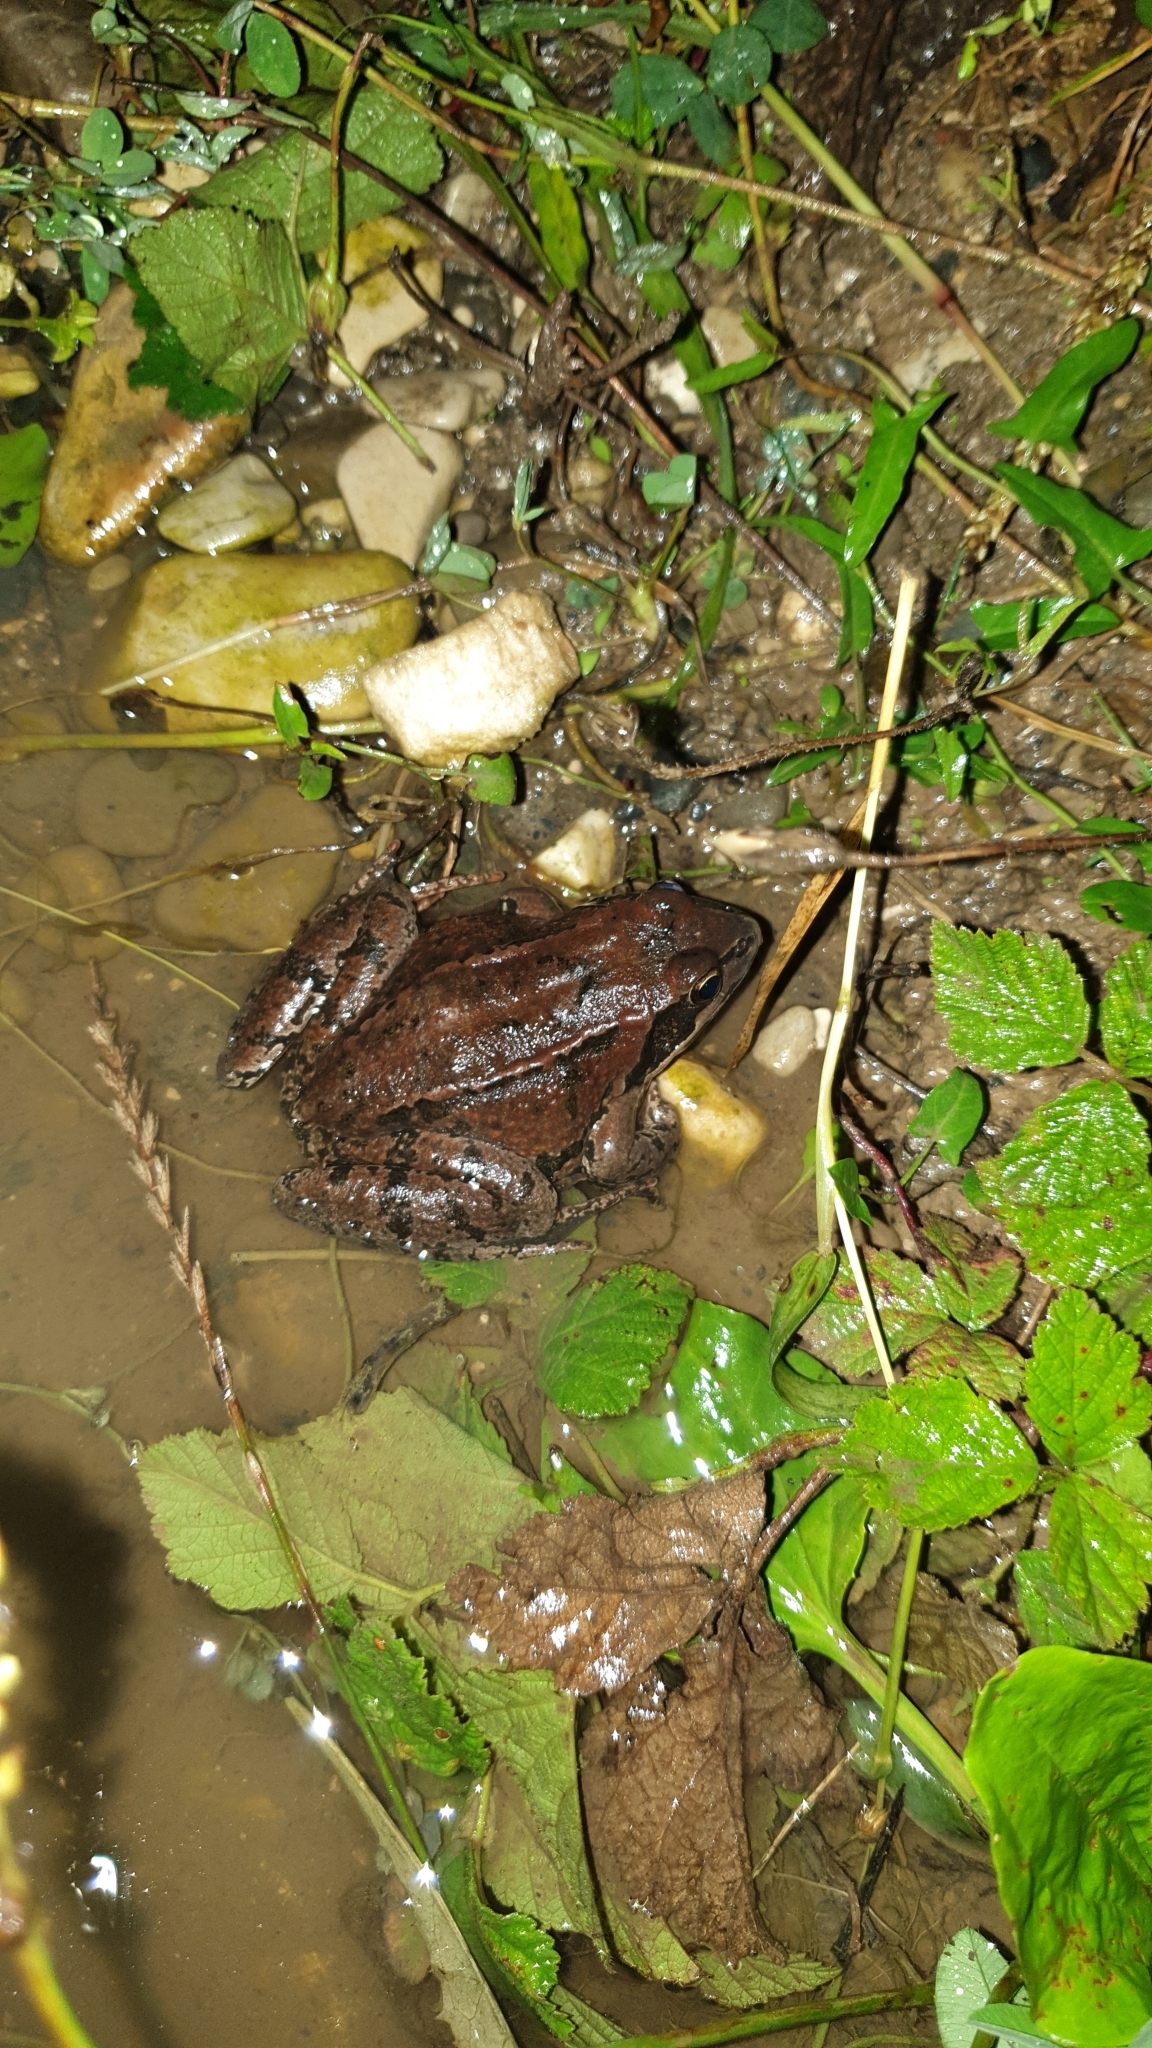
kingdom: Animalia
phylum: Chordata
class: Amphibia
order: Anura
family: Ranidae
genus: Rana
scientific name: Rana macrocnemis
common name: Banded frog
